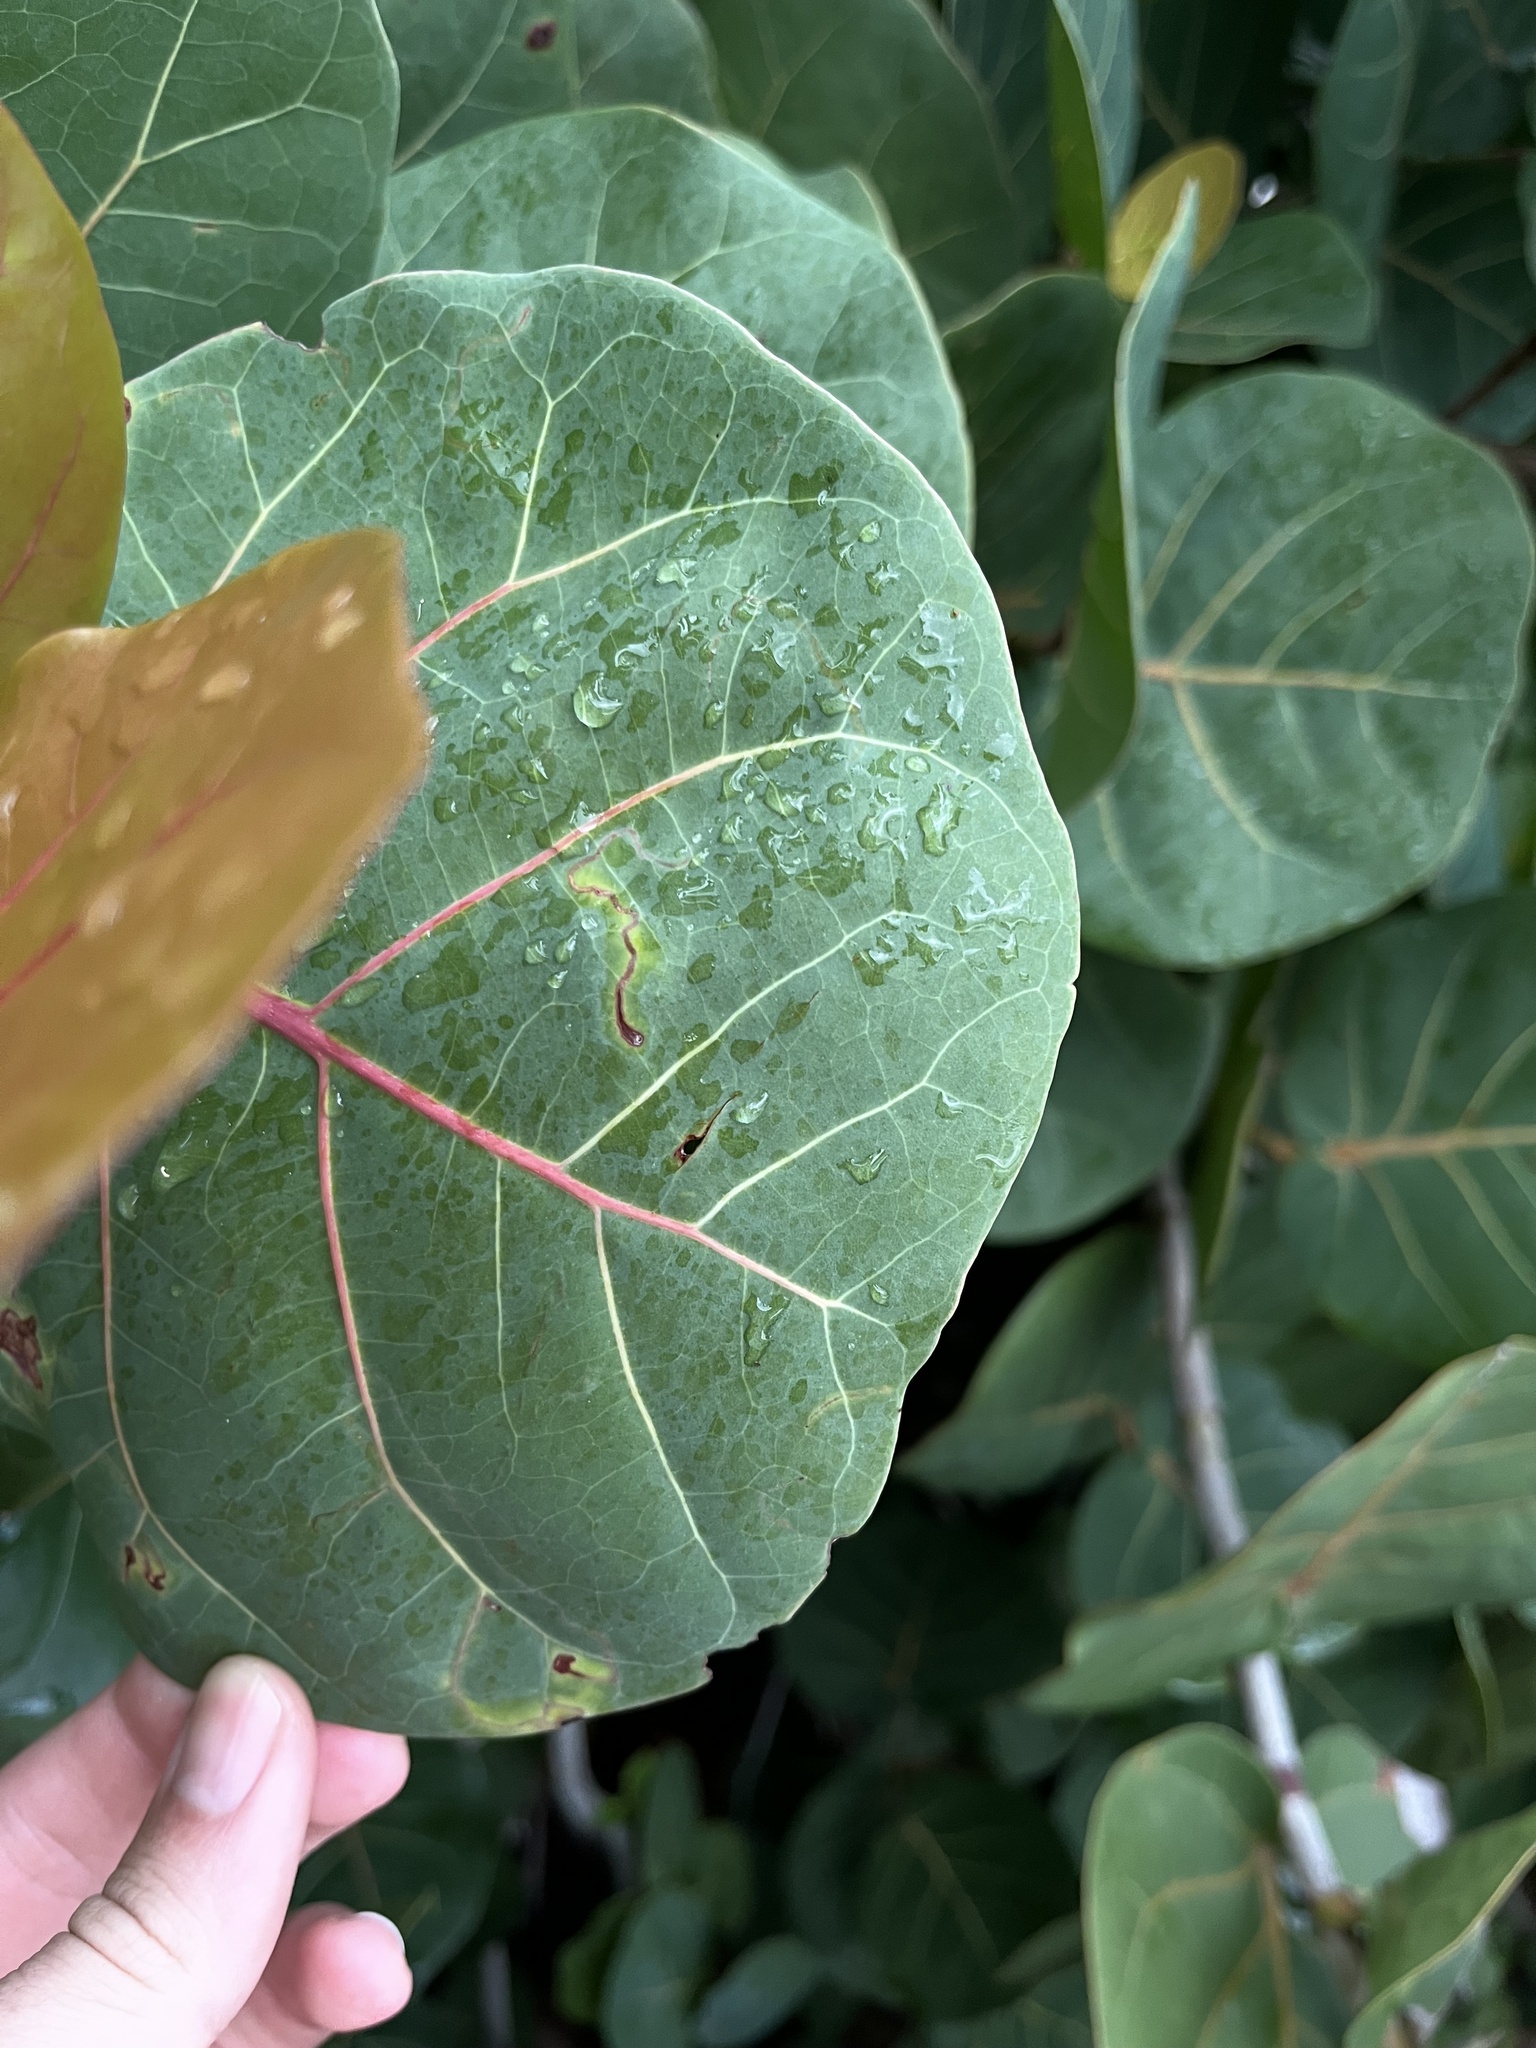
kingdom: Animalia
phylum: Arthropoda
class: Insecta
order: Lepidoptera
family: Nepticulidae
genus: Enteucha
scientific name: Enteucha basidactyla
